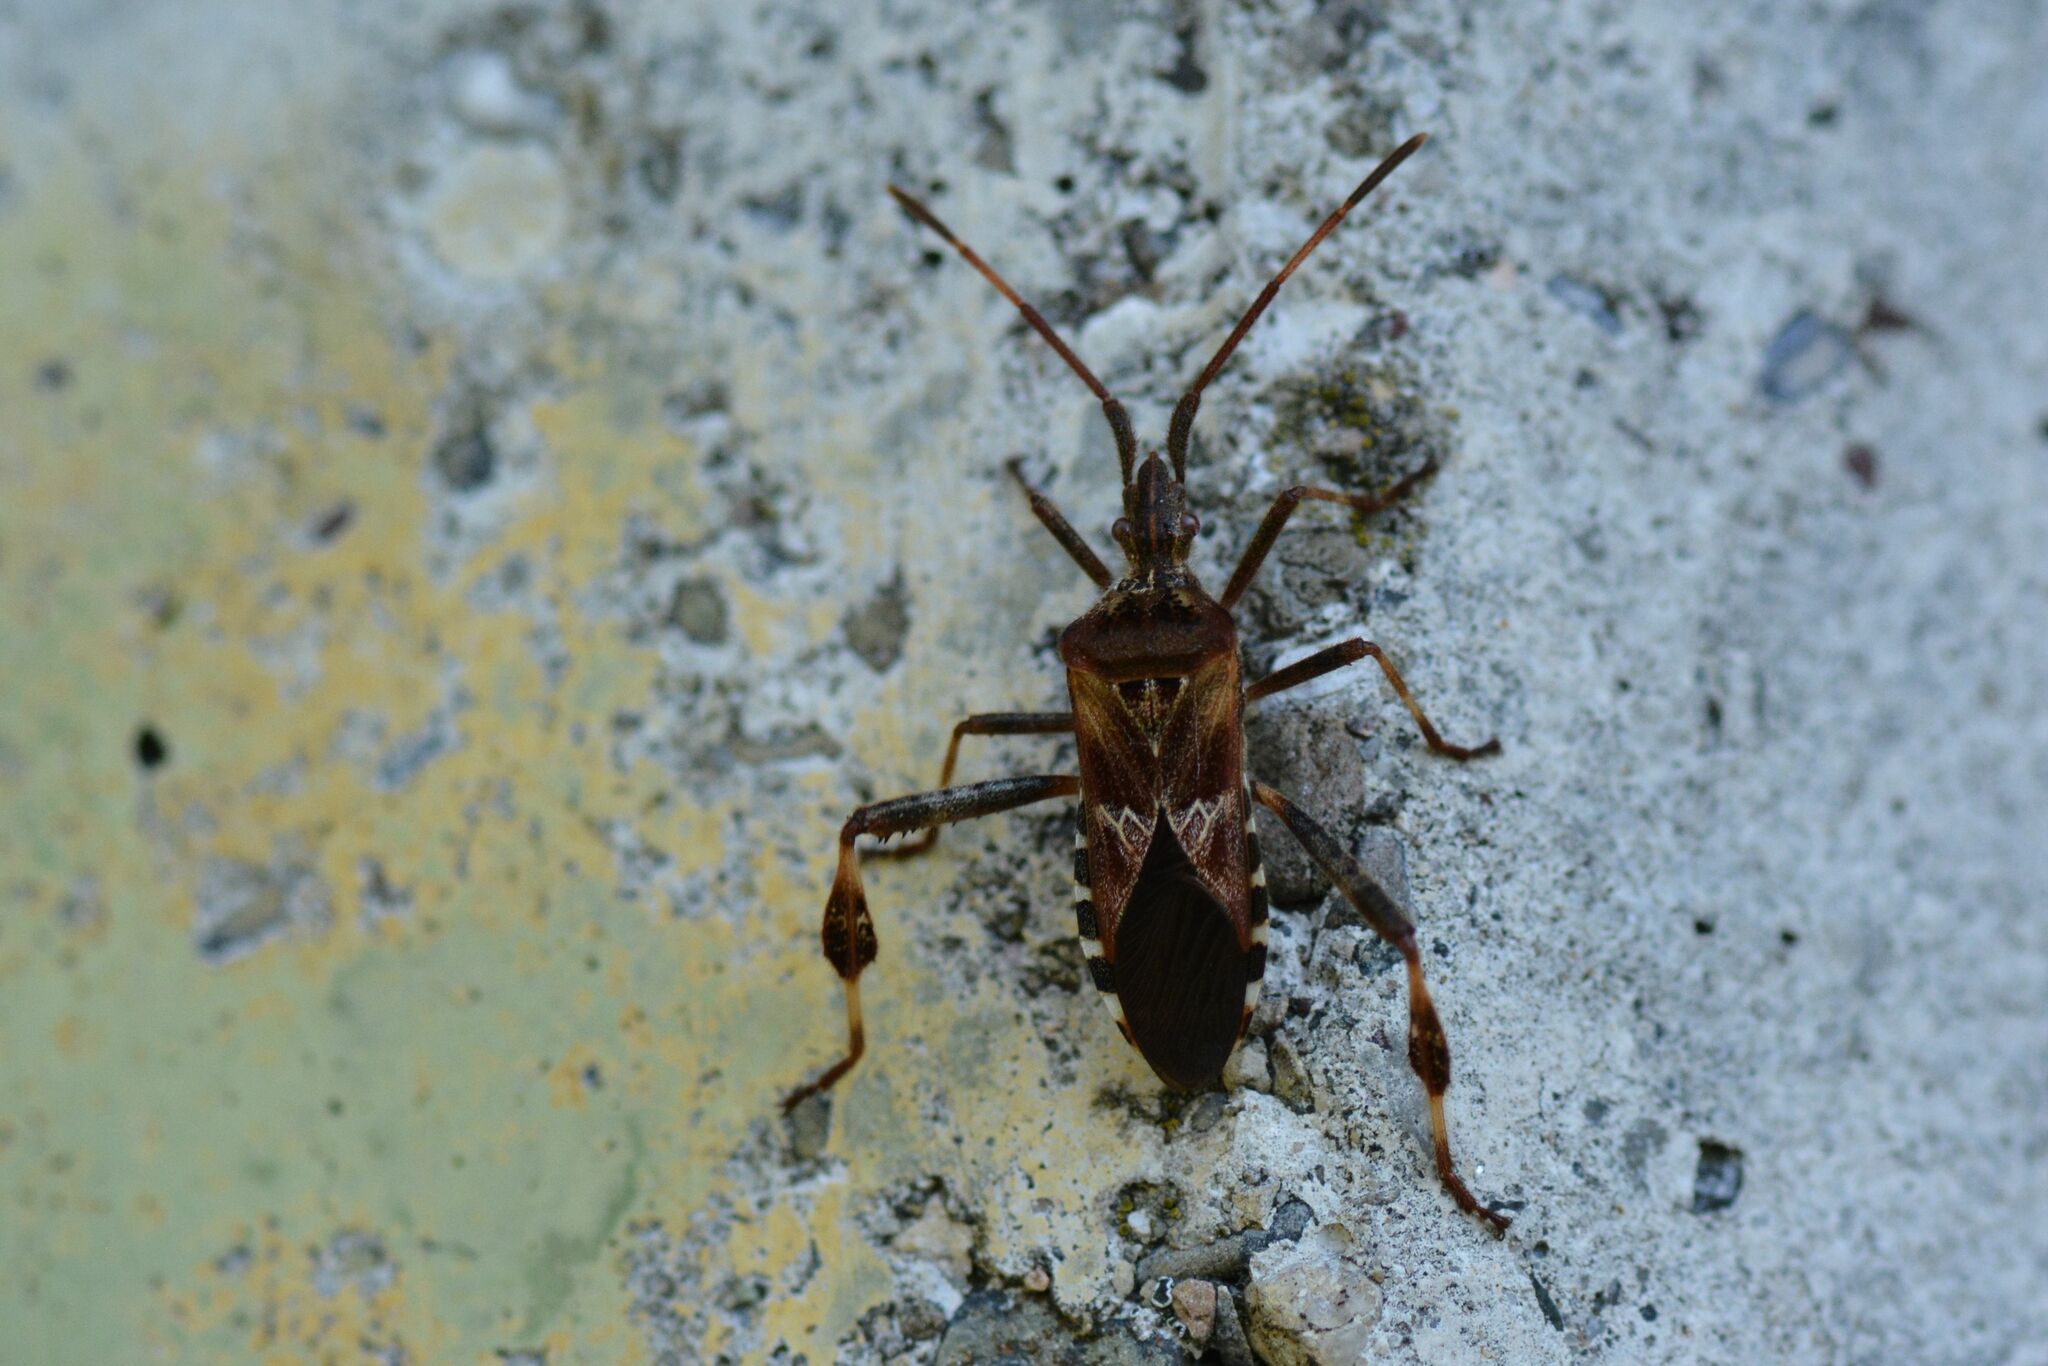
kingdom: Animalia
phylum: Arthropoda
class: Insecta
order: Hemiptera
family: Coreidae
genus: Leptoglossus
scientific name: Leptoglossus occidentalis
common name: Western conifer-seed bug
